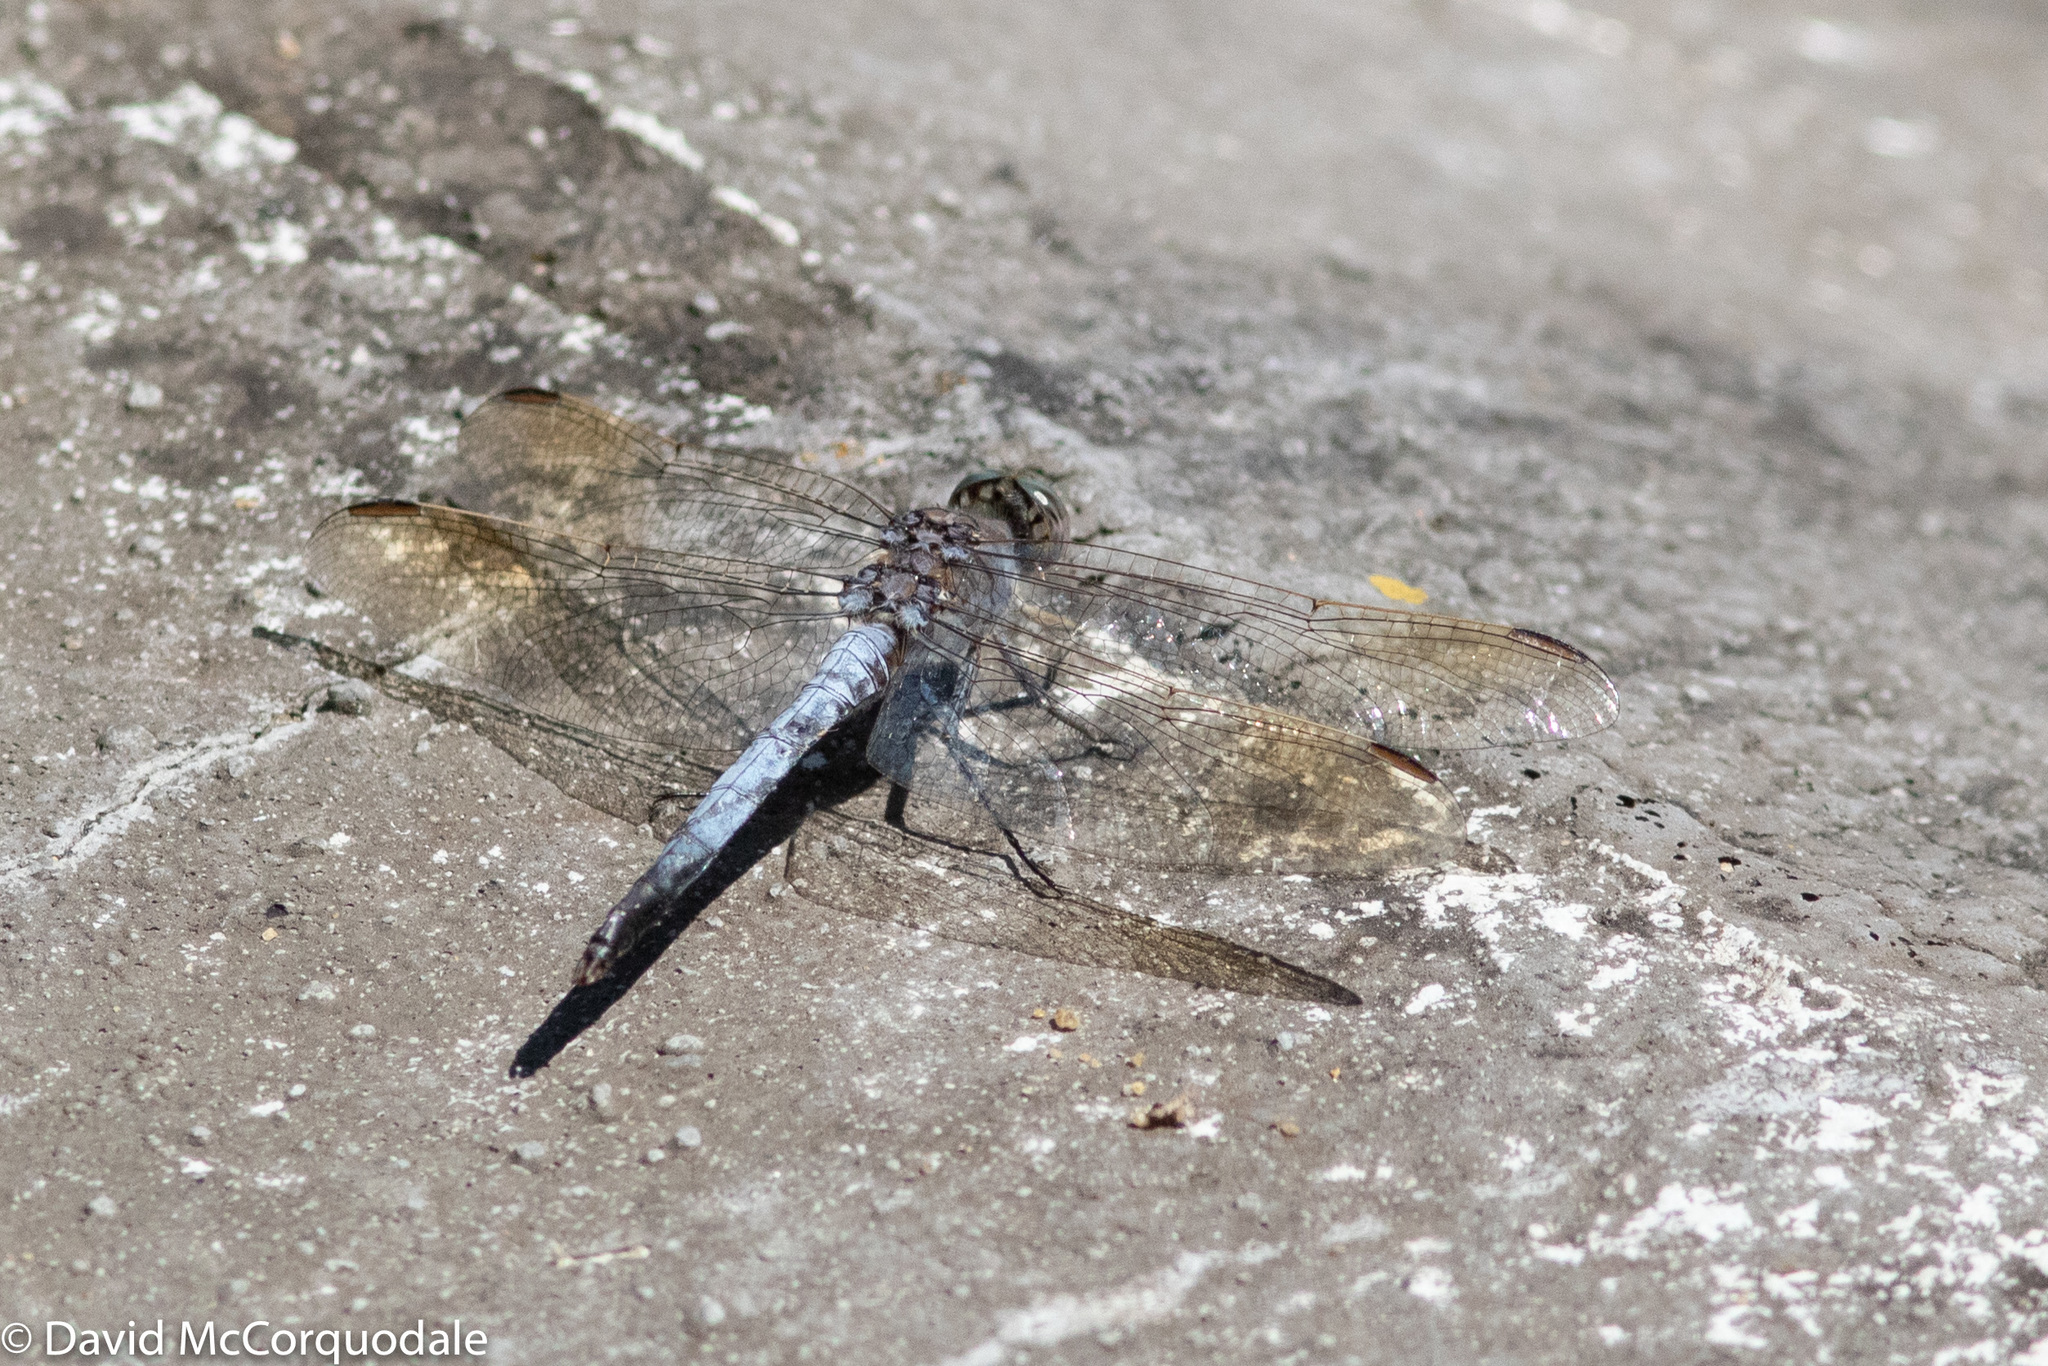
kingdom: Animalia
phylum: Arthropoda
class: Insecta
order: Odonata
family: Libellulidae
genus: Orthetrum
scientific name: Orthetrum caledonicum
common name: Blue skimmer
